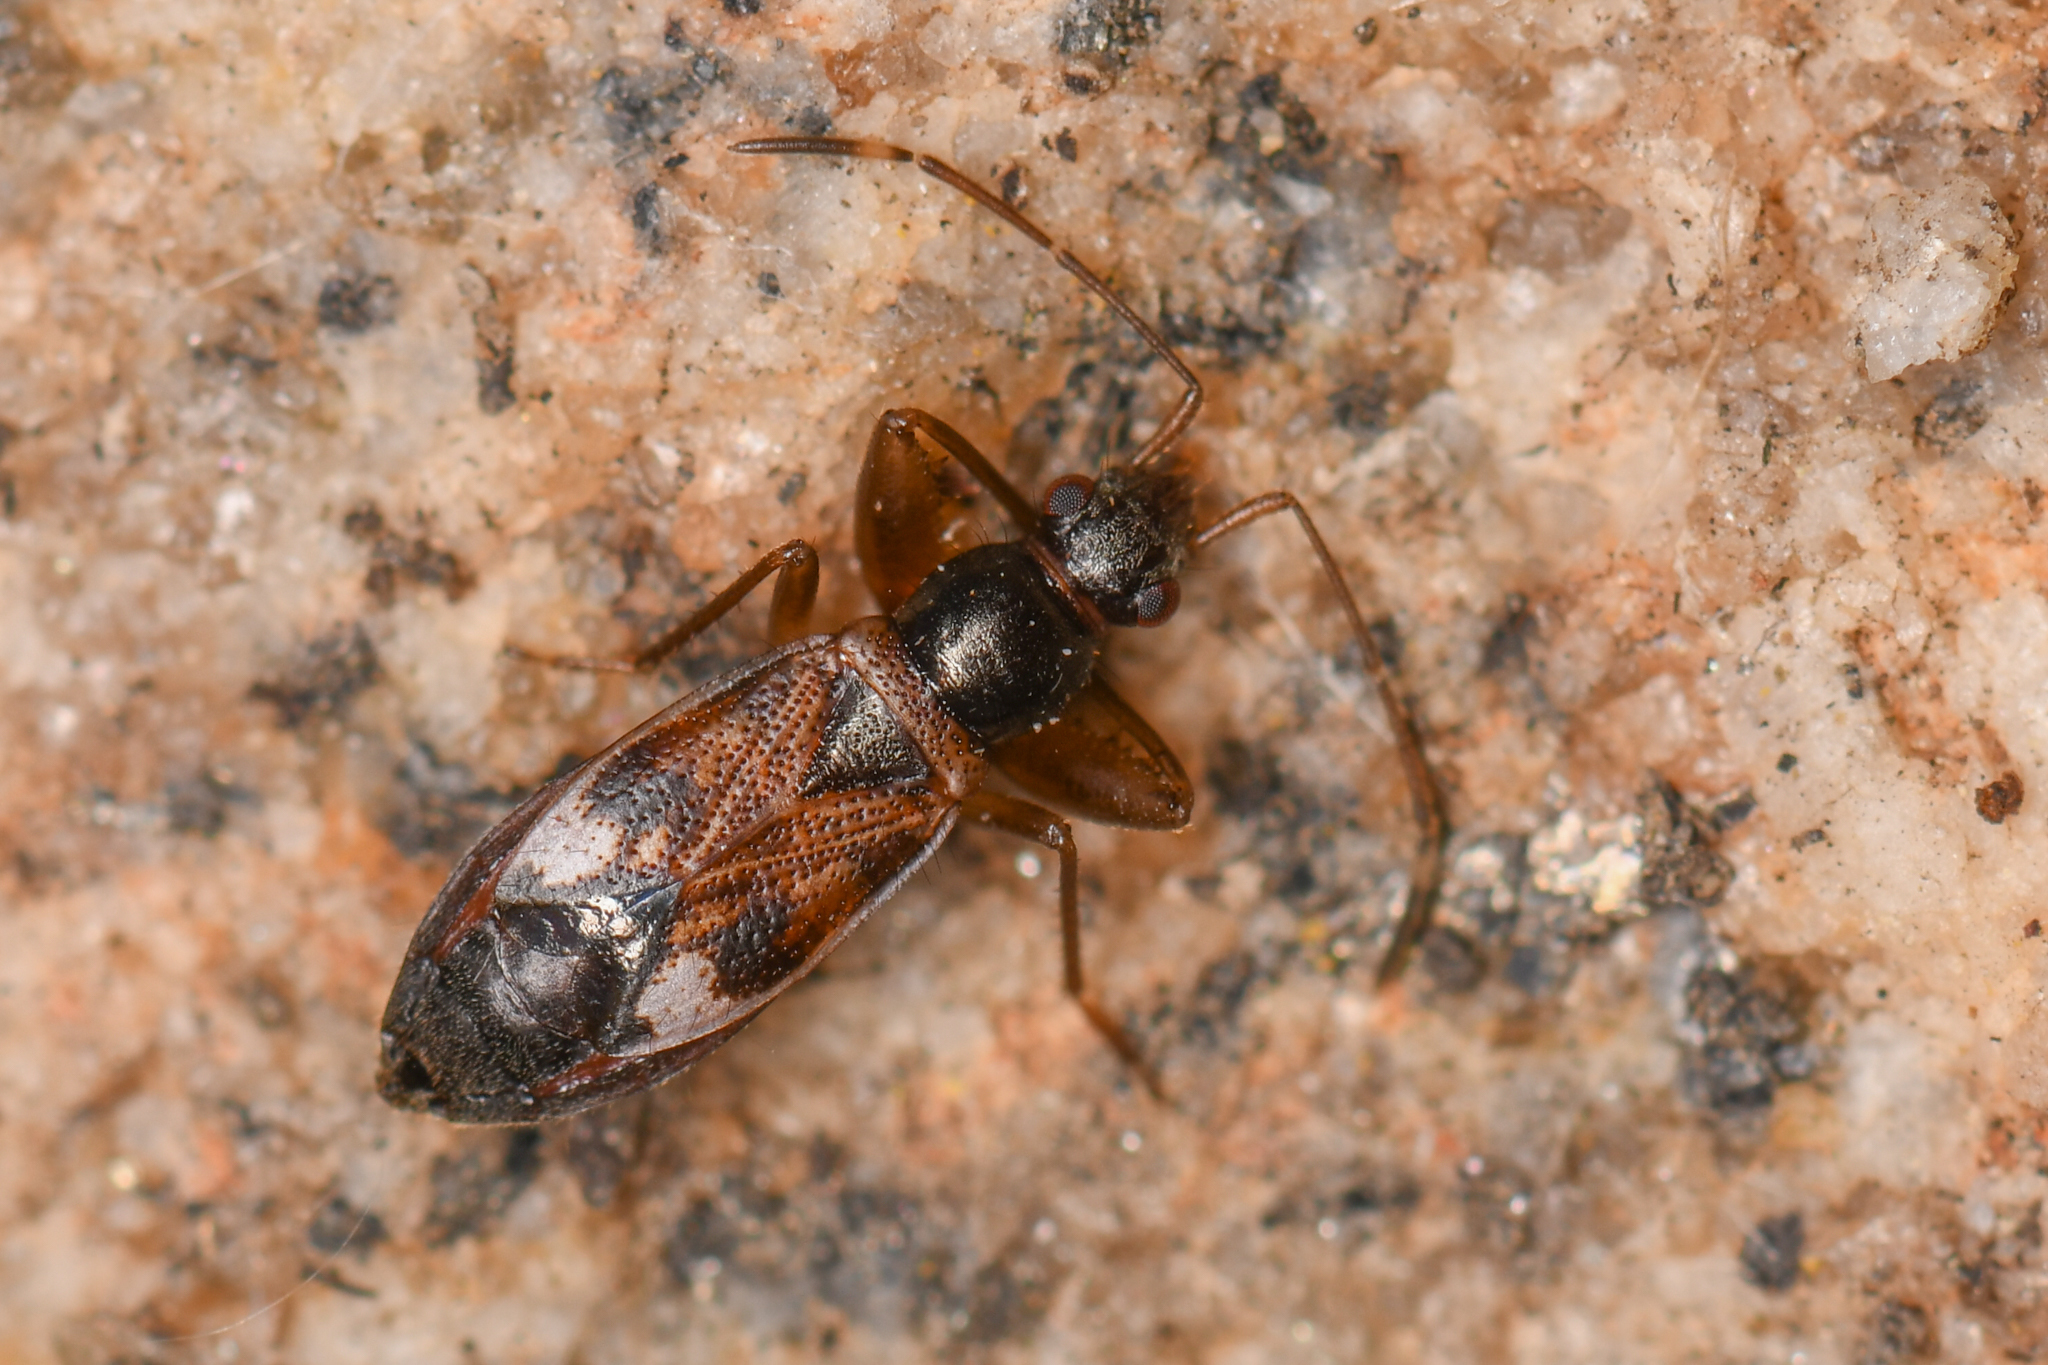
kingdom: Animalia
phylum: Arthropoda
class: Insecta
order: Hemiptera
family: Rhyparochromidae
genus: Ashlockaria
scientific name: Ashlockaria diadema
